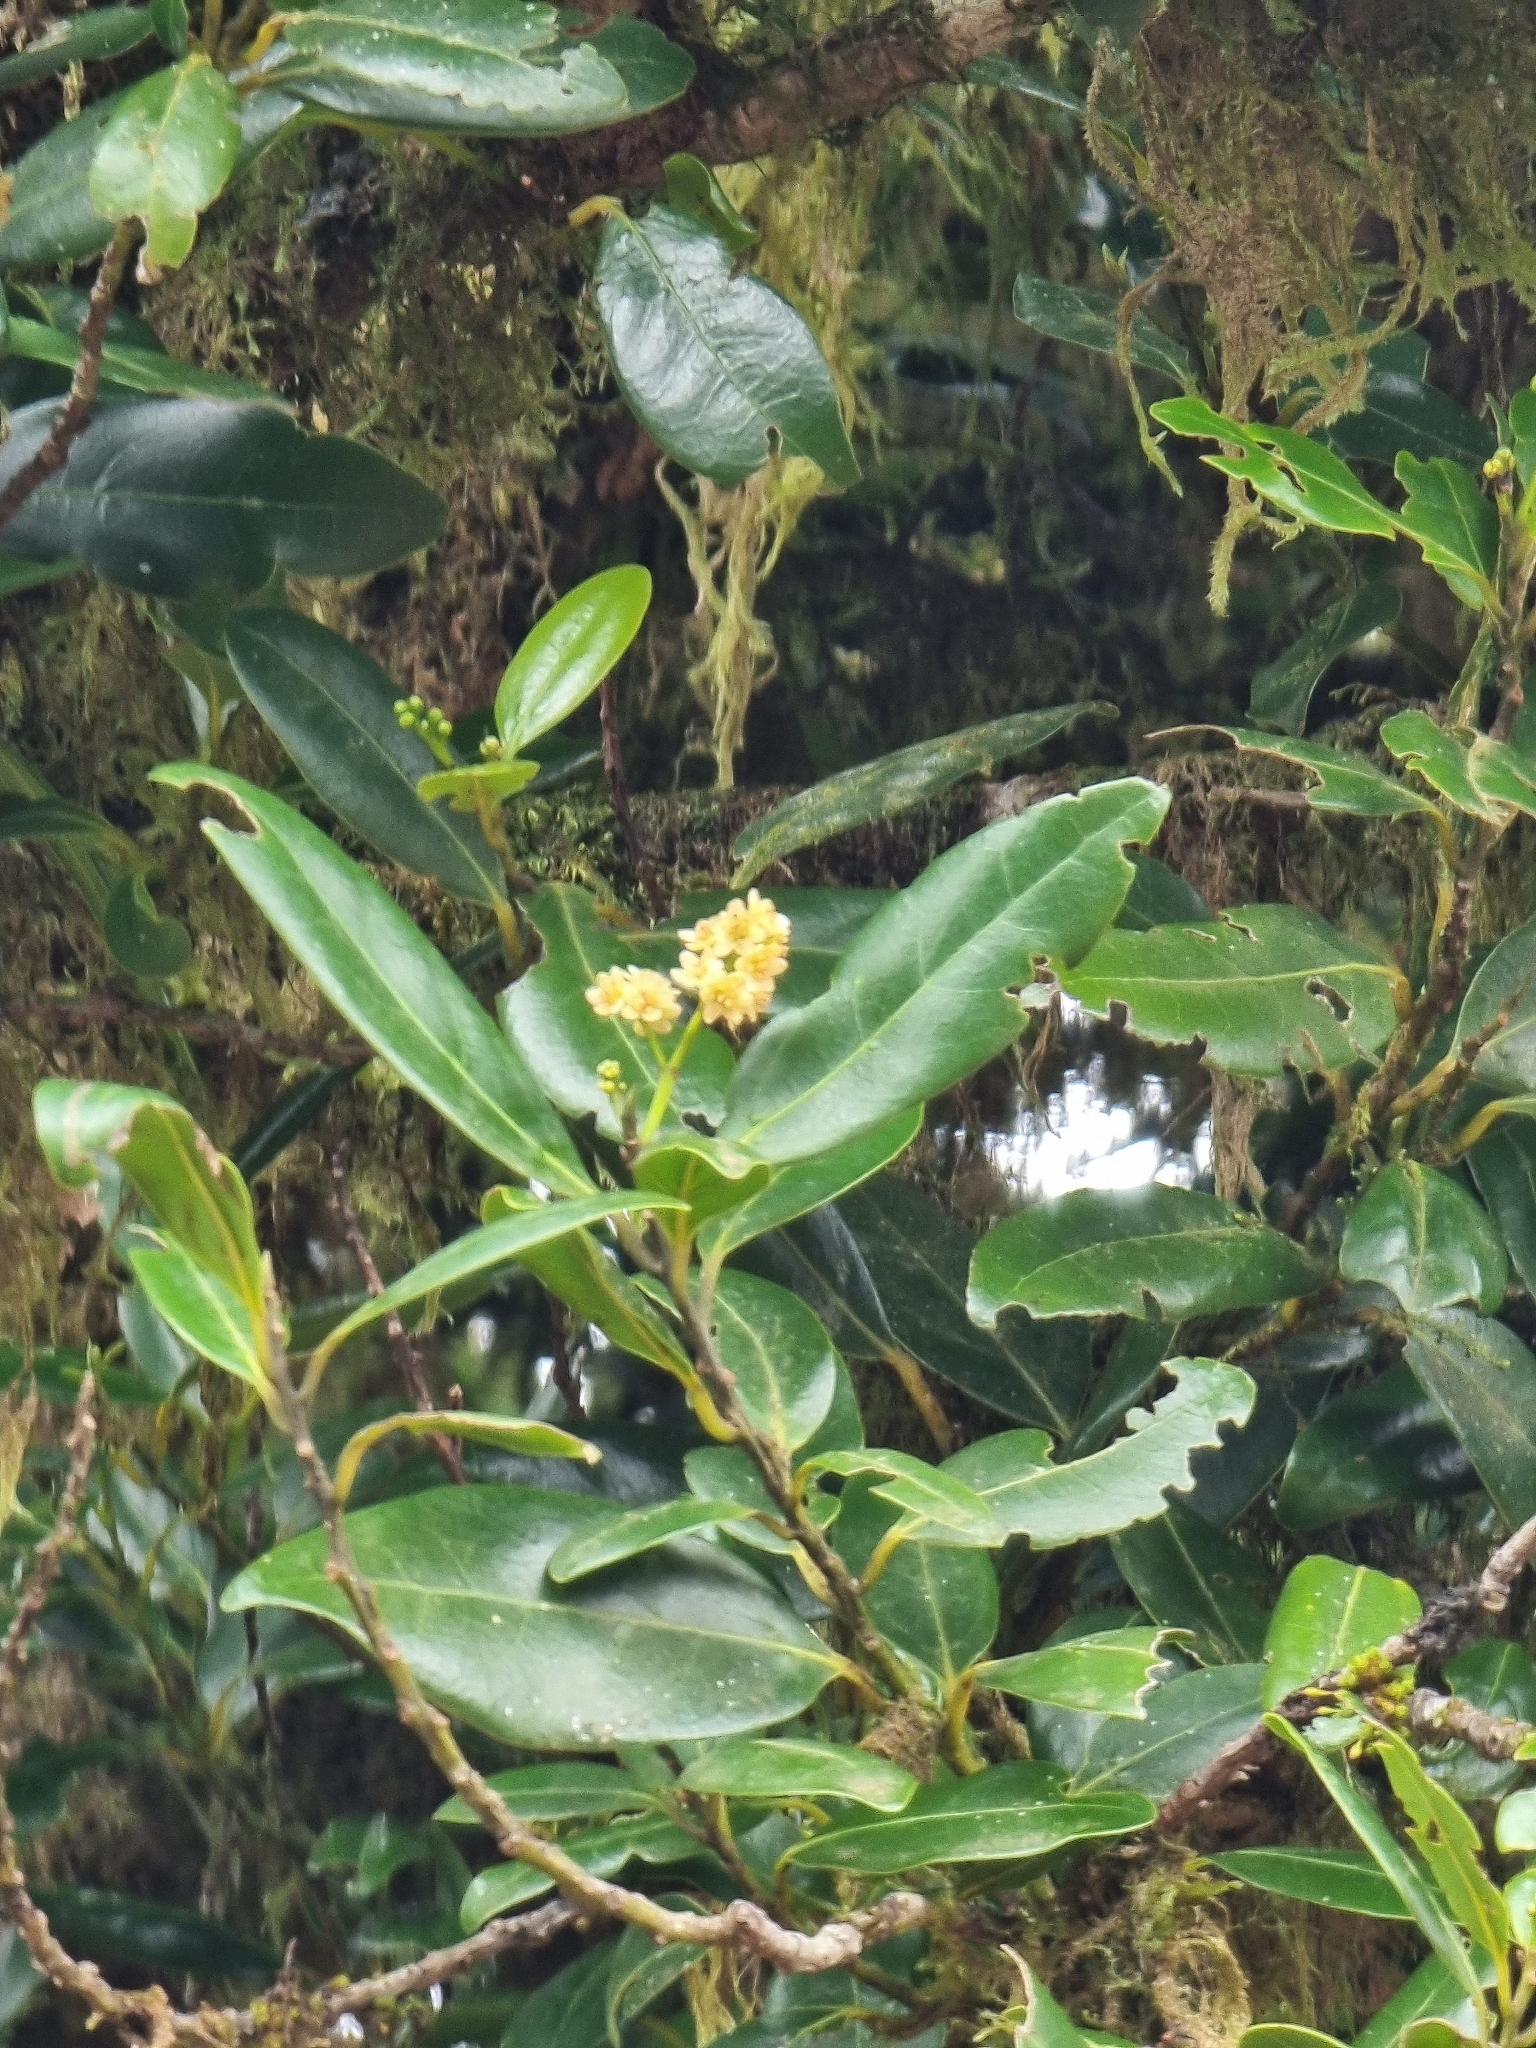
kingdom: Plantae
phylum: Tracheophyta
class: Magnoliopsida
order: Laurales
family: Lauraceae
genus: Mespilodaphne
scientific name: Mespilodaphne foetens
